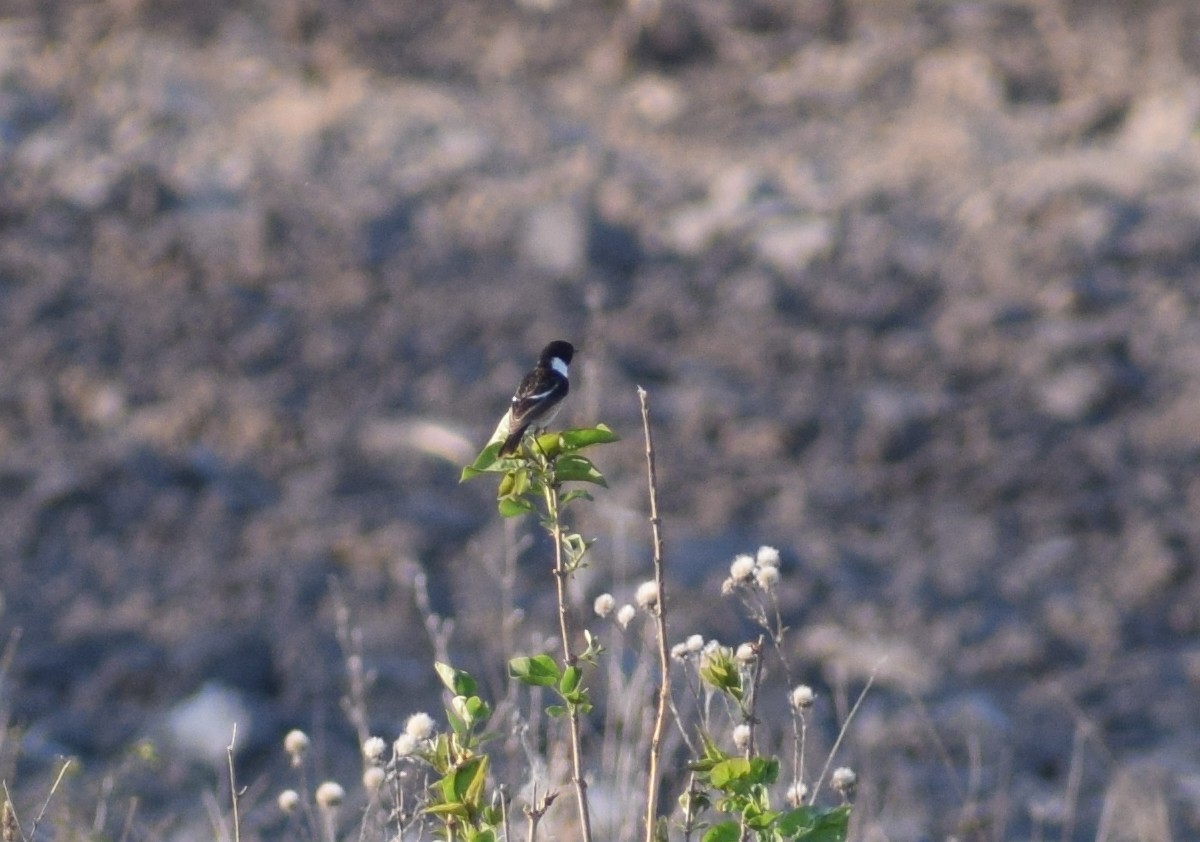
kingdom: Animalia
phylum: Chordata
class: Aves
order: Passeriformes
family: Muscicapidae
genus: Saxicola
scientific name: Saxicola rubicola
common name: European stonechat
